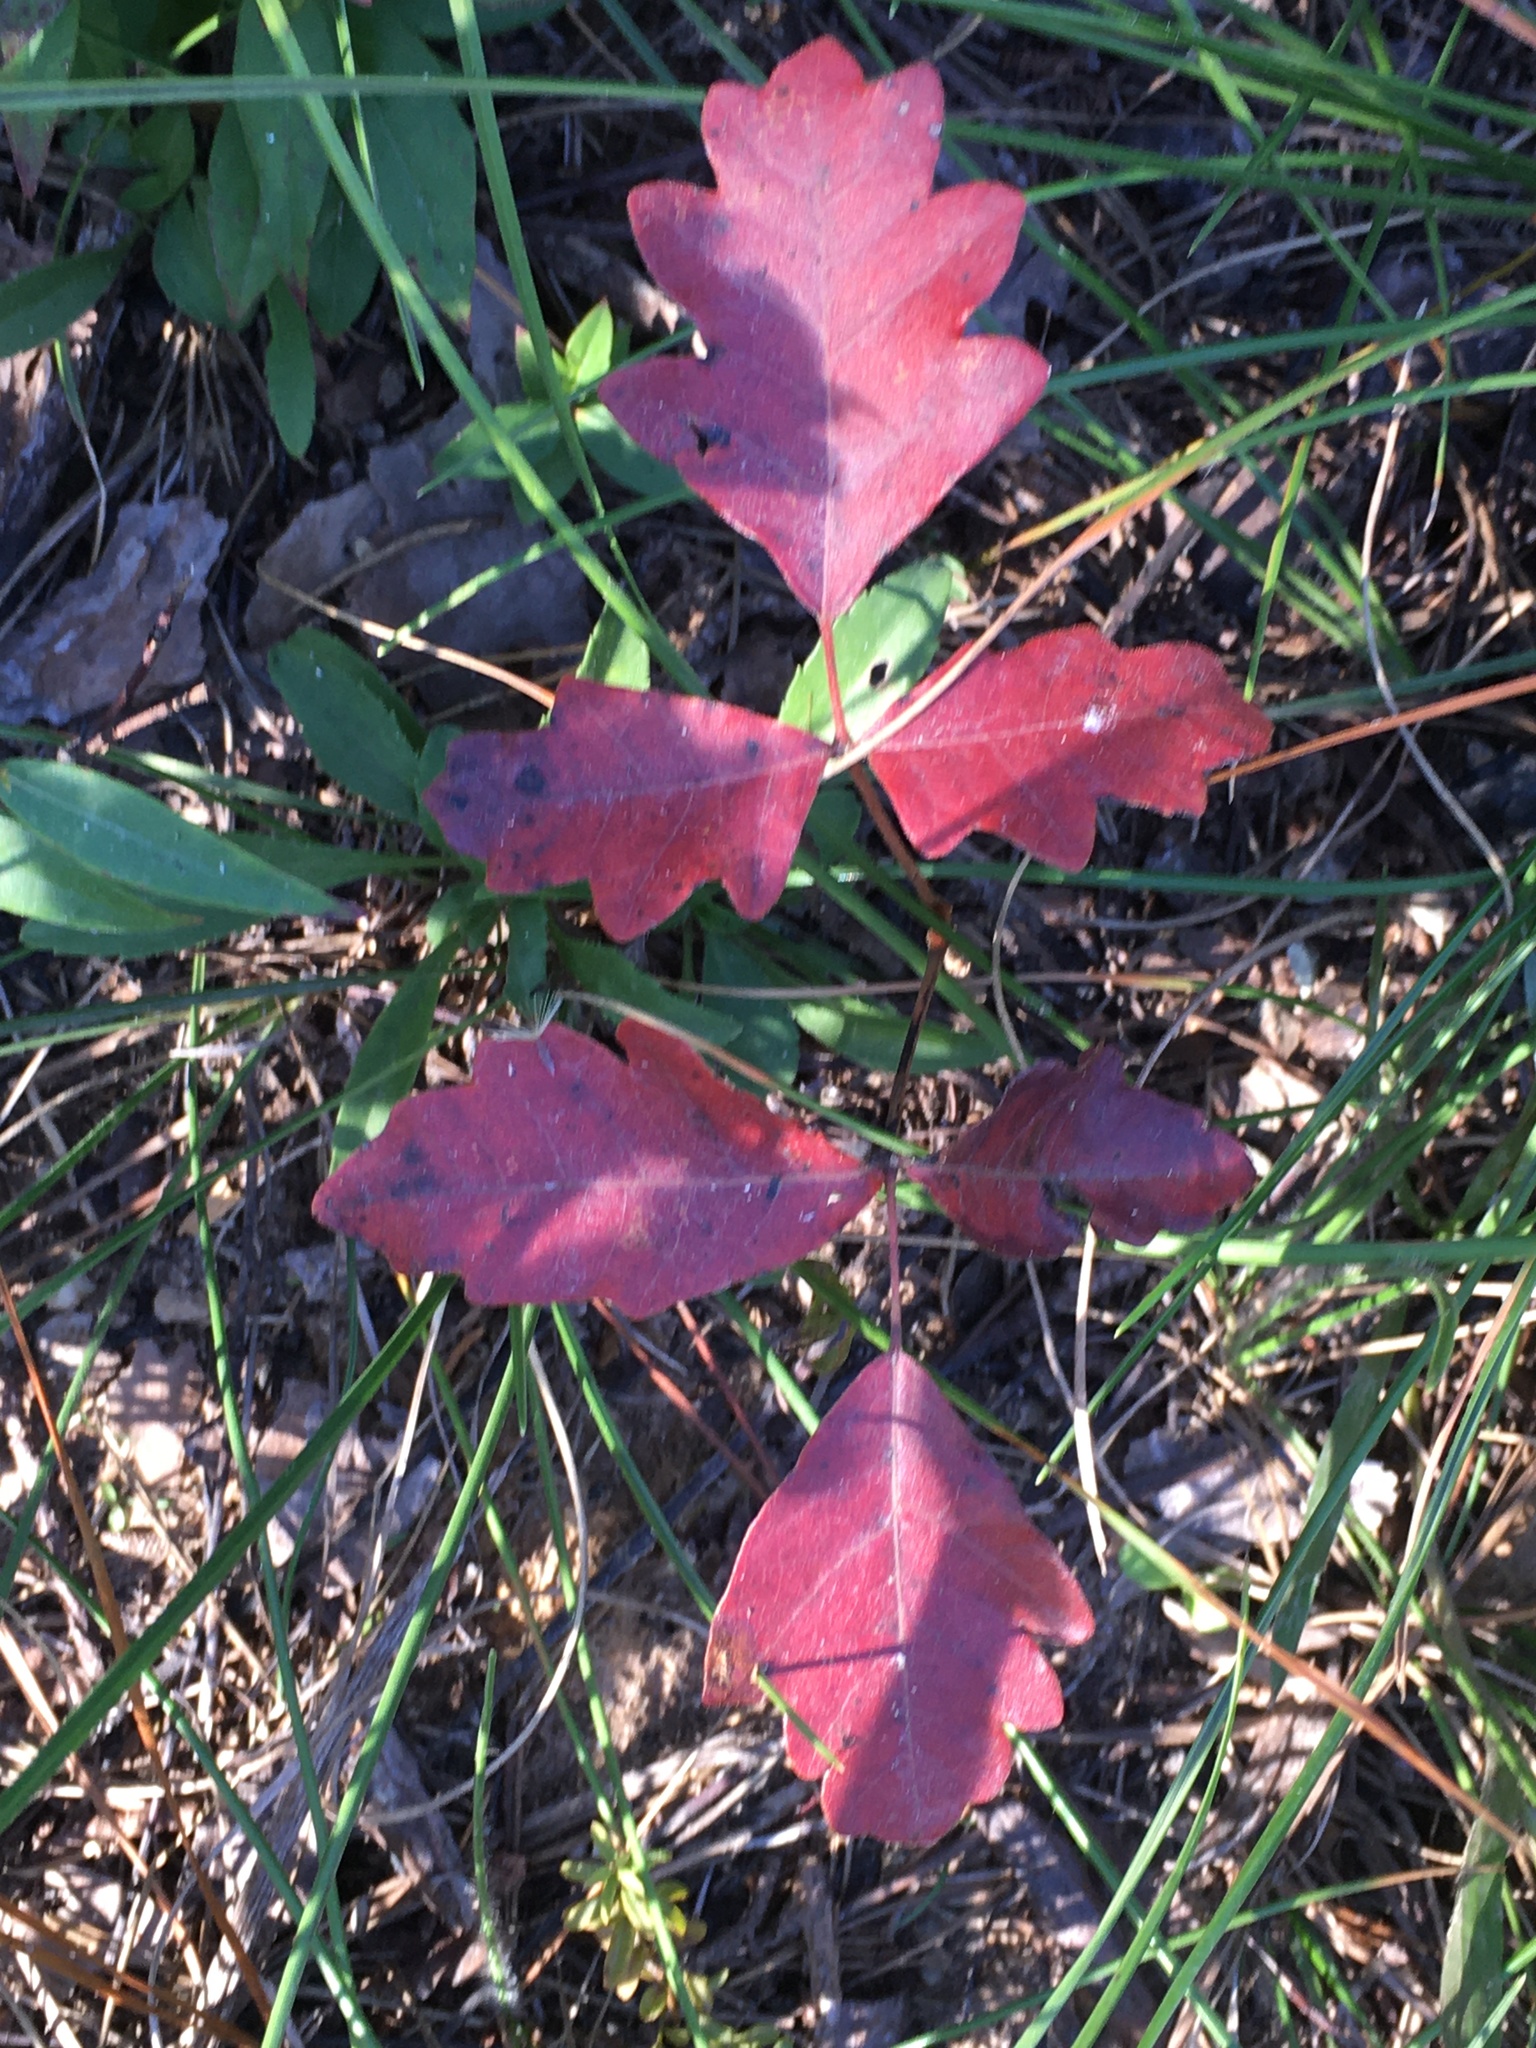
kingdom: Plantae
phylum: Tracheophyta
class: Magnoliopsida
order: Sapindales
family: Anacardiaceae
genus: Toxicodendron
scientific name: Toxicodendron pubescens
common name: Eastern poison-oak
